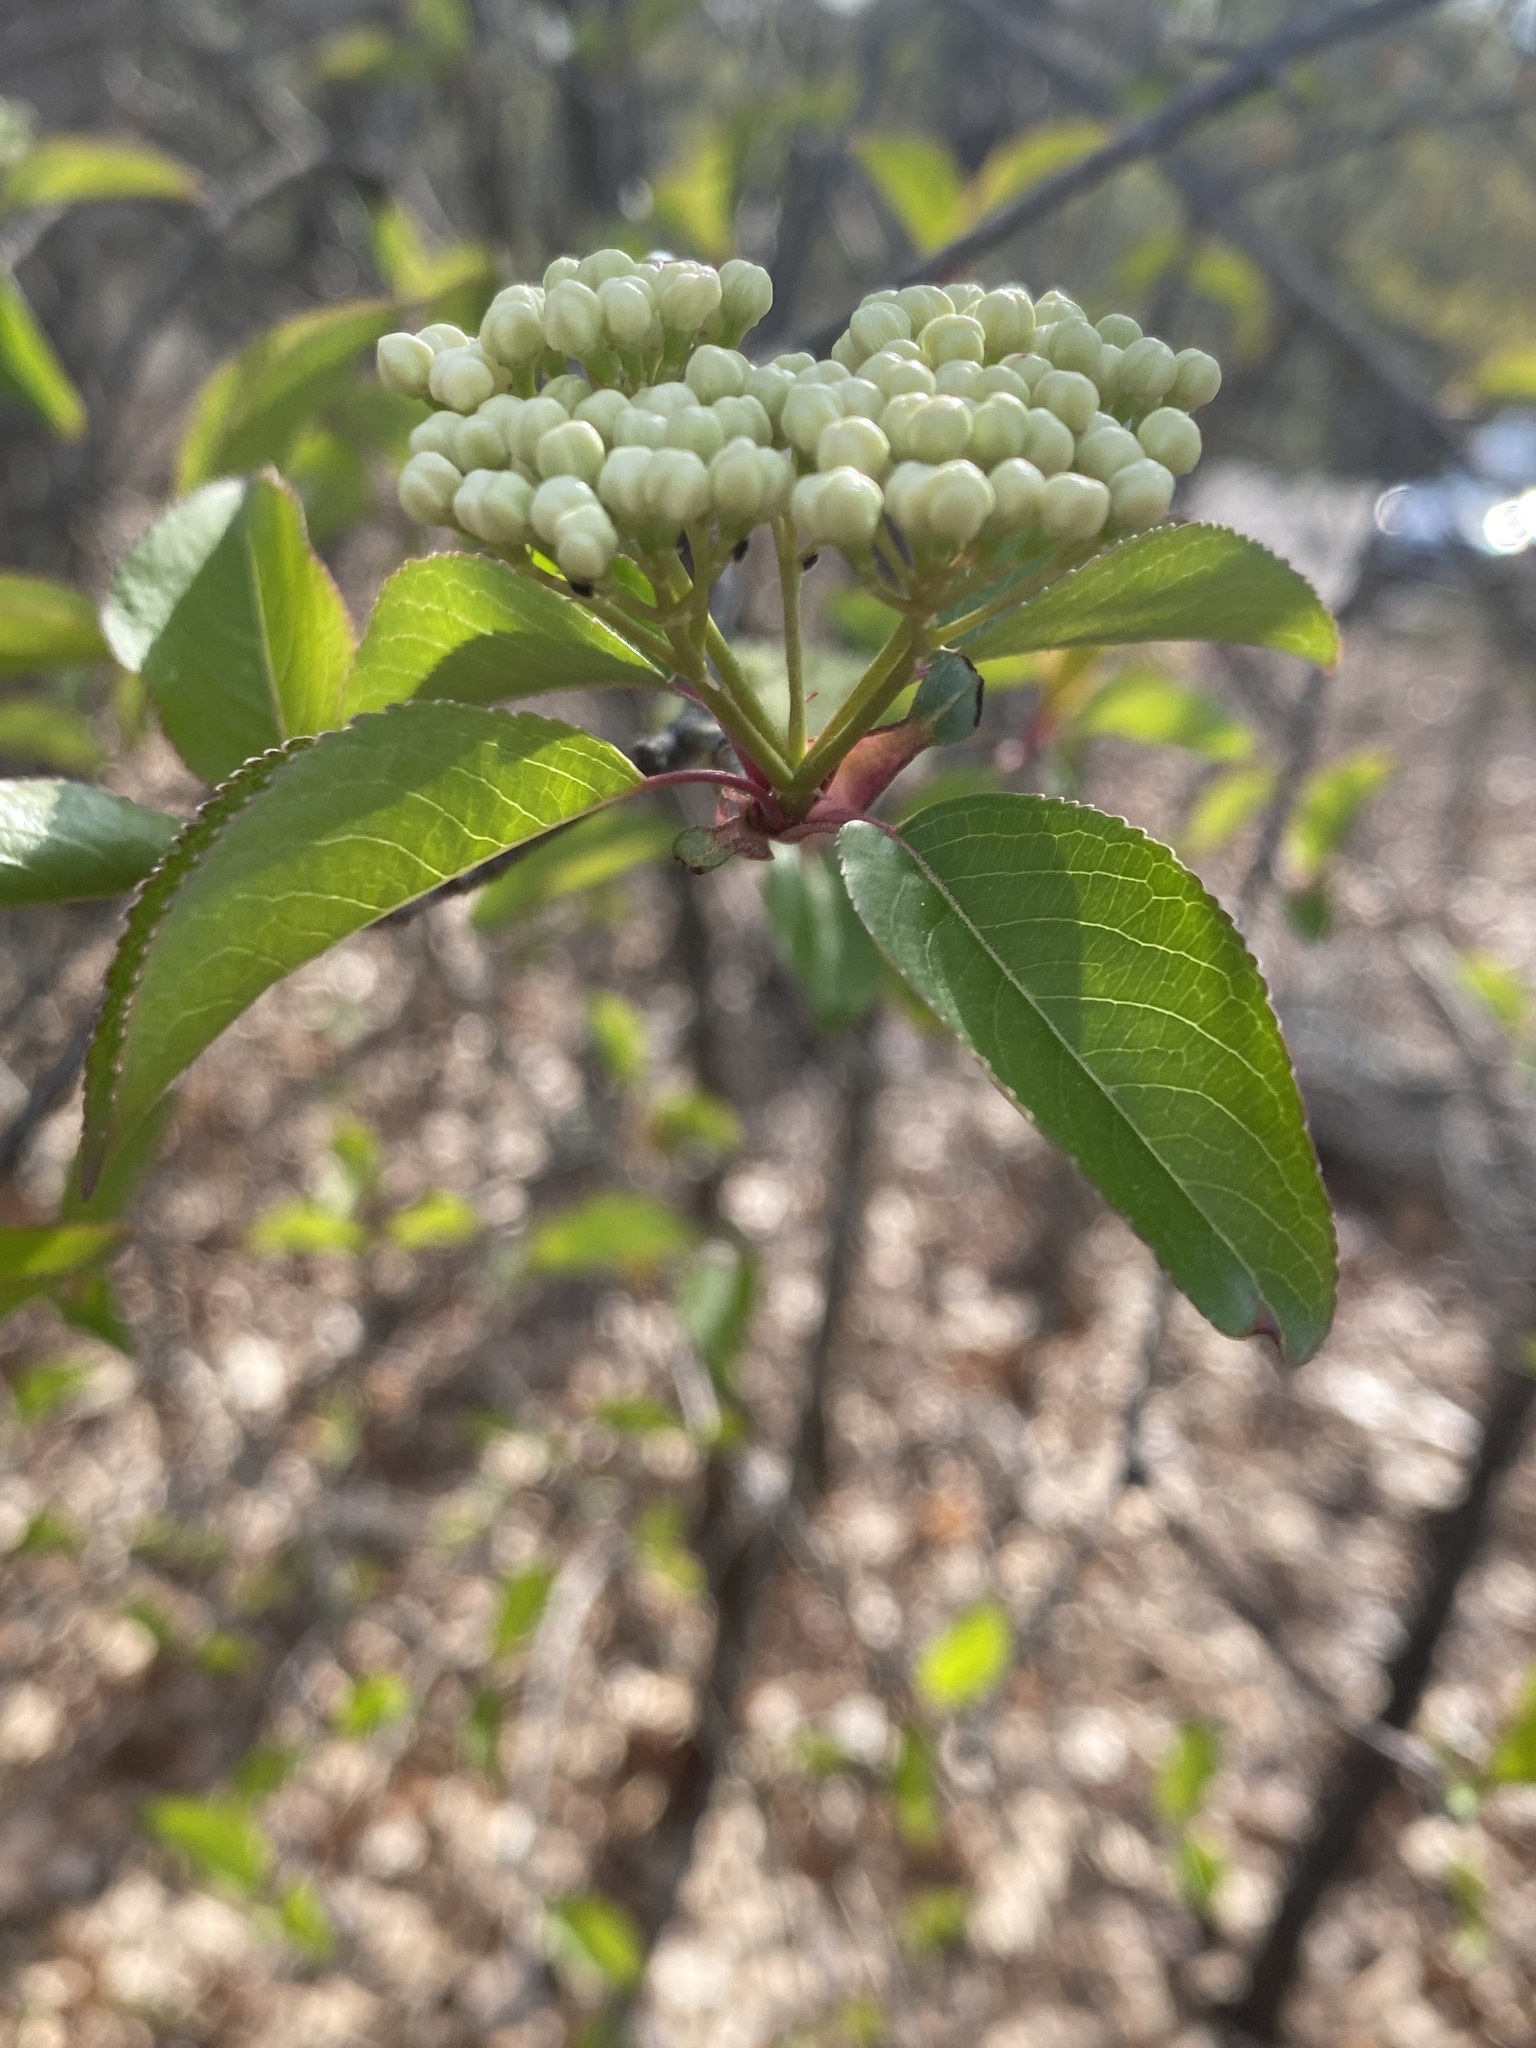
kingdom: Plantae
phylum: Tracheophyta
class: Magnoliopsida
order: Dipsacales
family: Viburnaceae
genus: Viburnum
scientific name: Viburnum prunifolium
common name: Black haw
